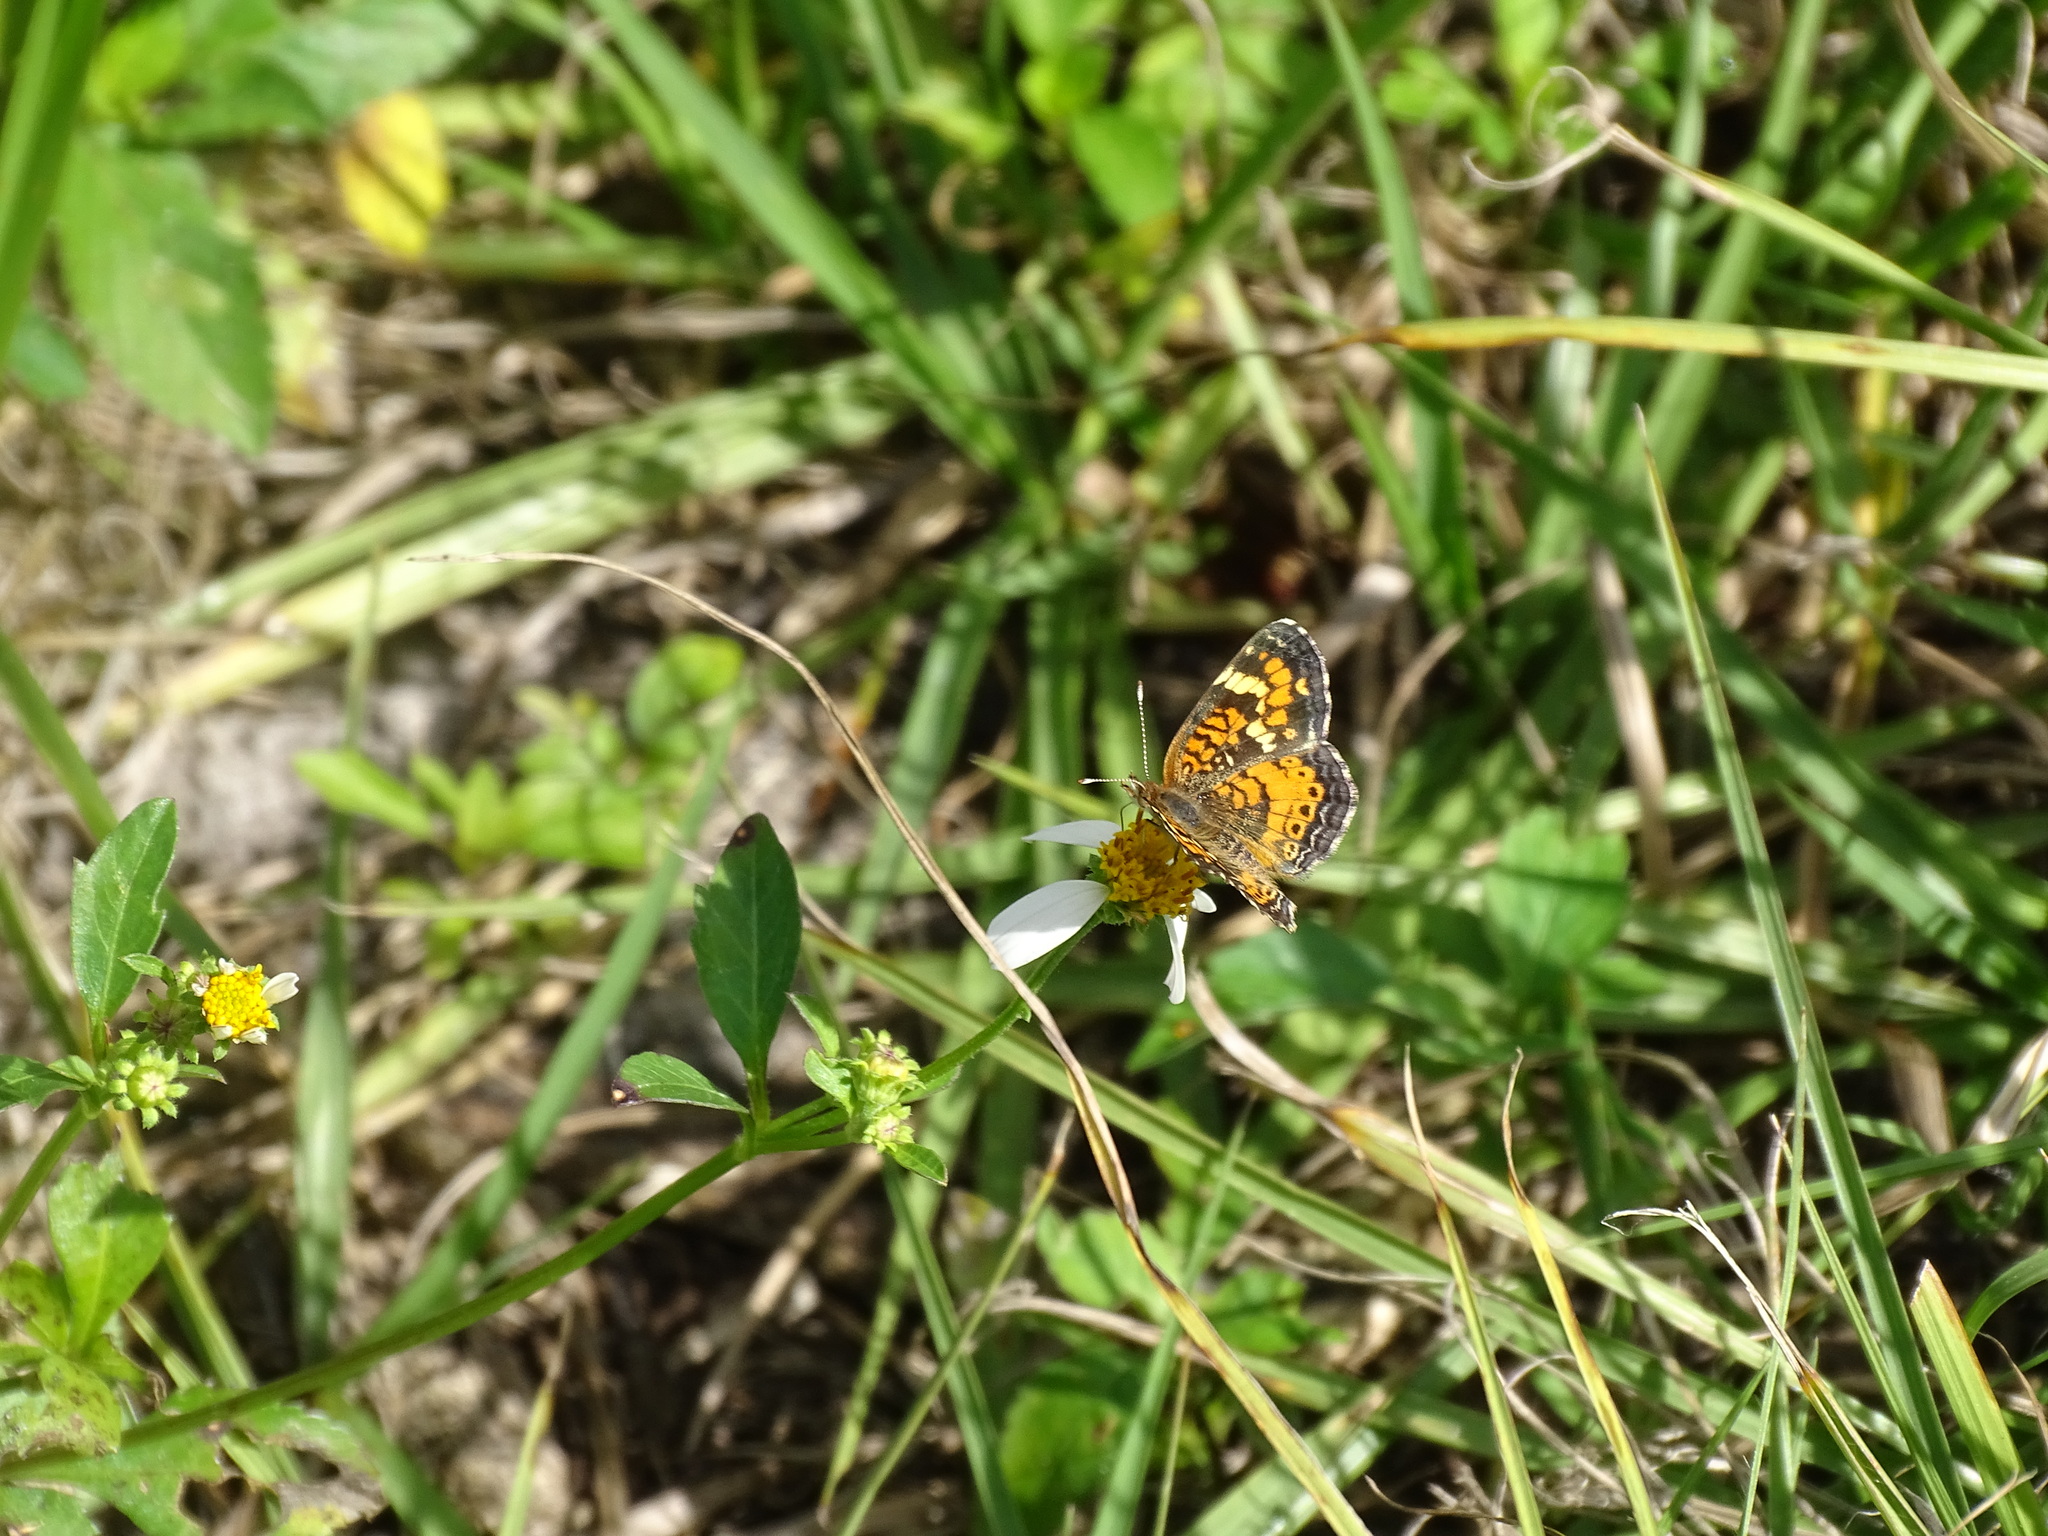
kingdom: Animalia
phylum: Arthropoda
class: Insecta
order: Lepidoptera
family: Nymphalidae
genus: Phyciodes
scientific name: Phyciodes phaon
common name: Phaon crescent
